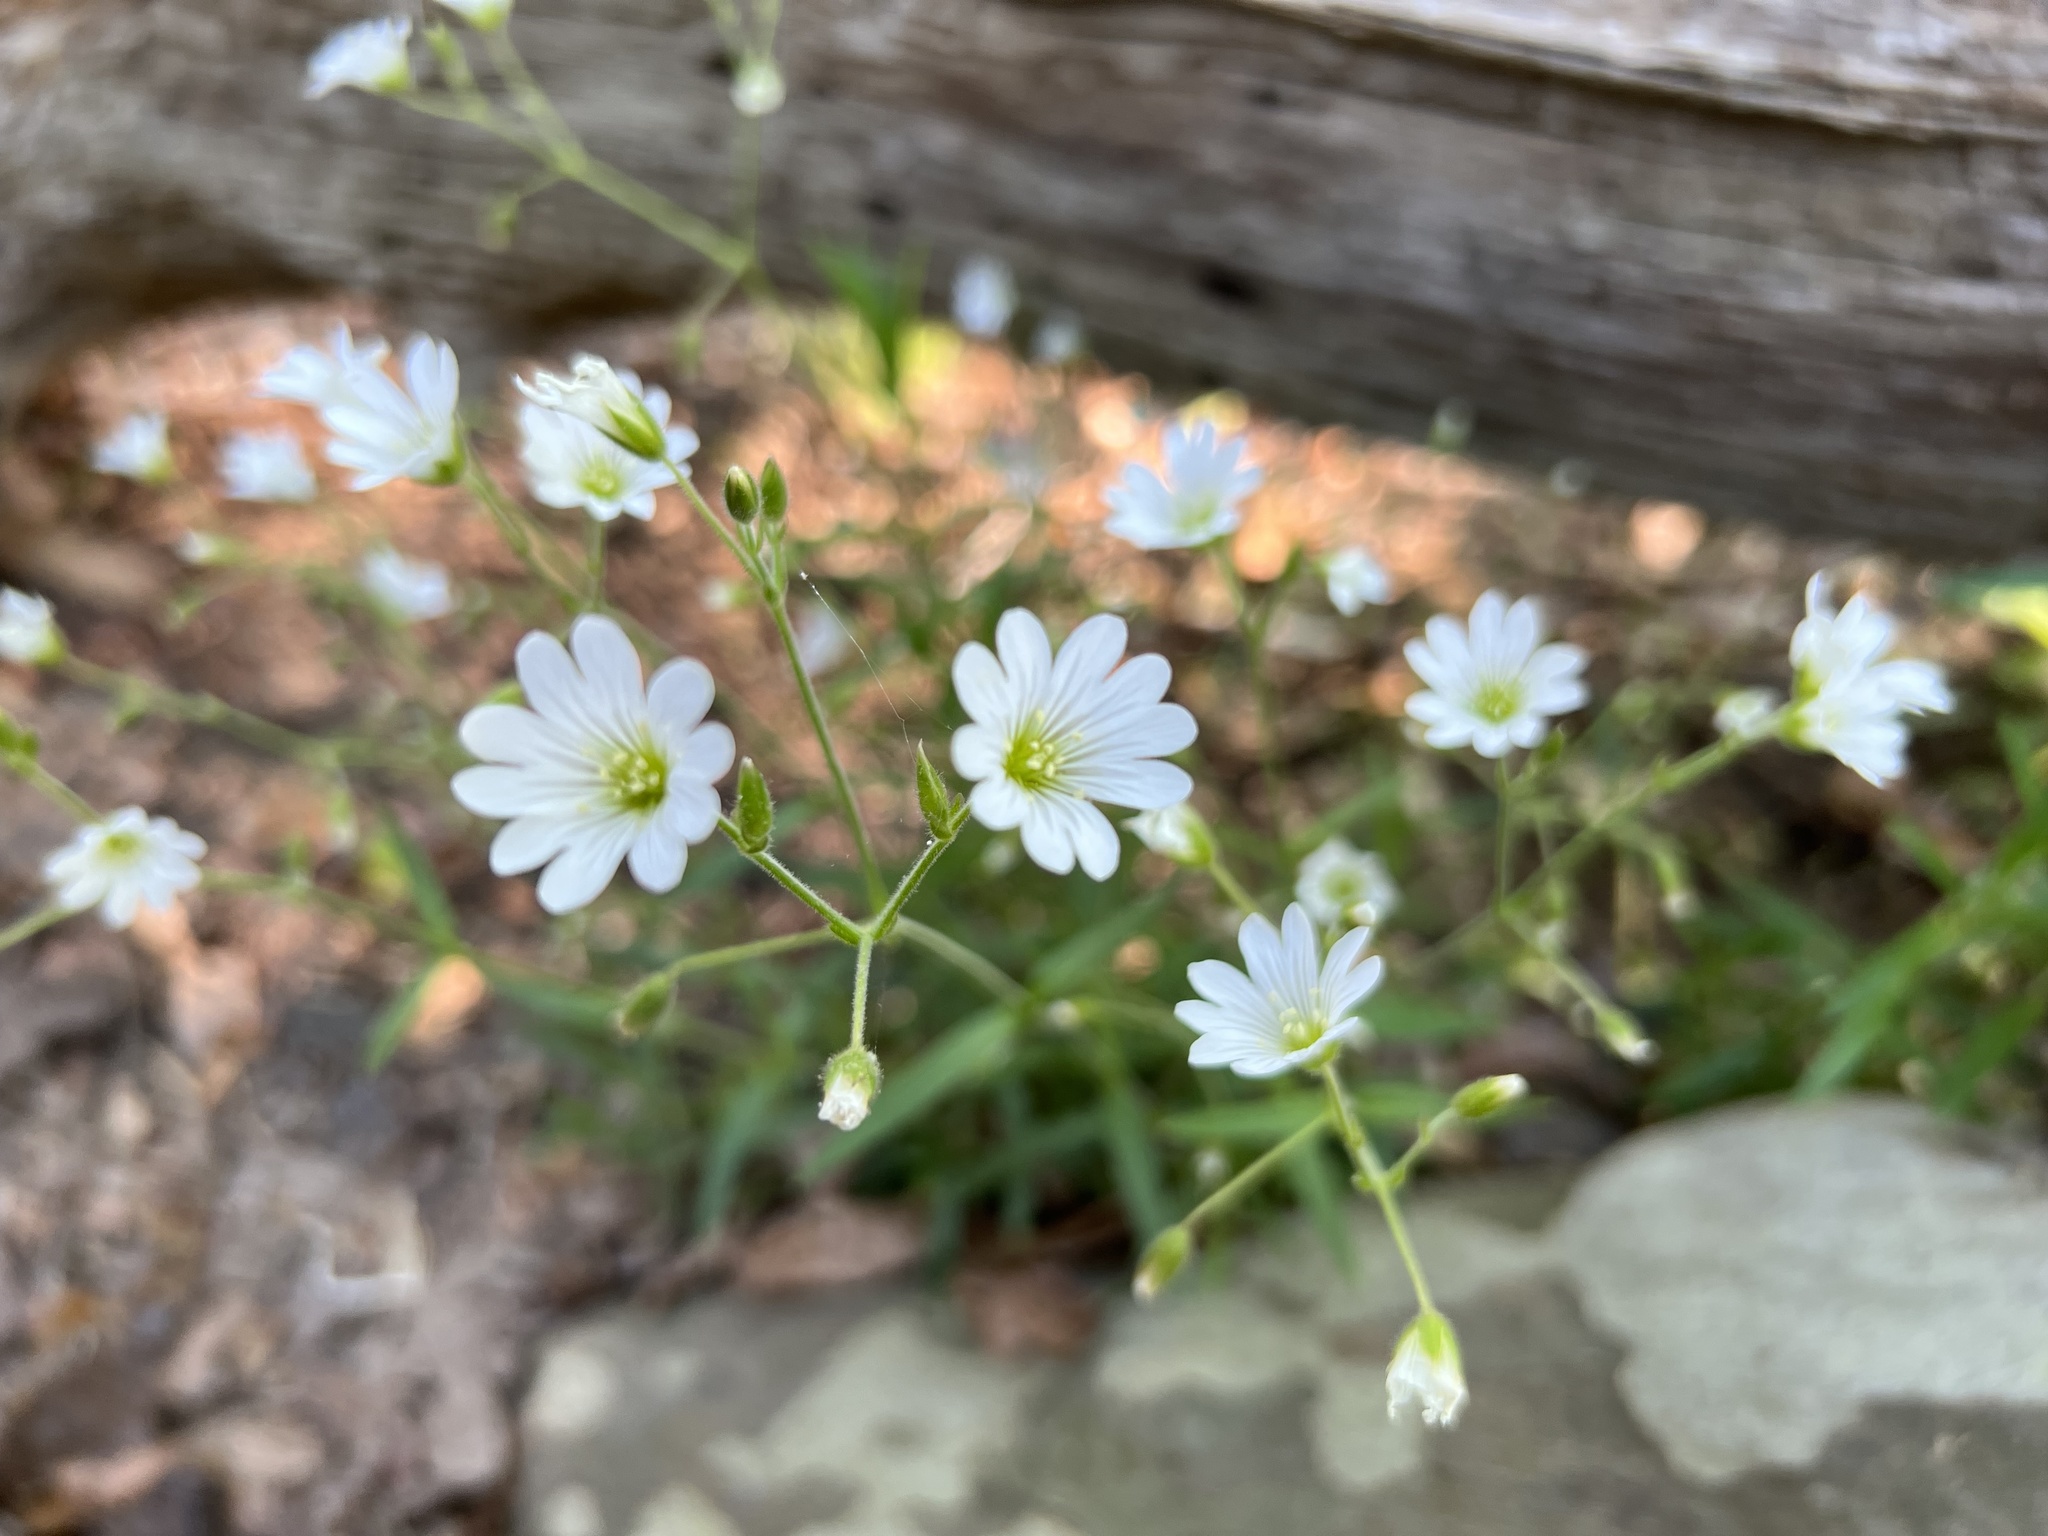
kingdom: Plantae
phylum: Tracheophyta
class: Magnoliopsida
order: Caryophyllales
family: Caryophyllaceae
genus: Cerastium
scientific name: Cerastium velutinum
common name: Barren chickweed
